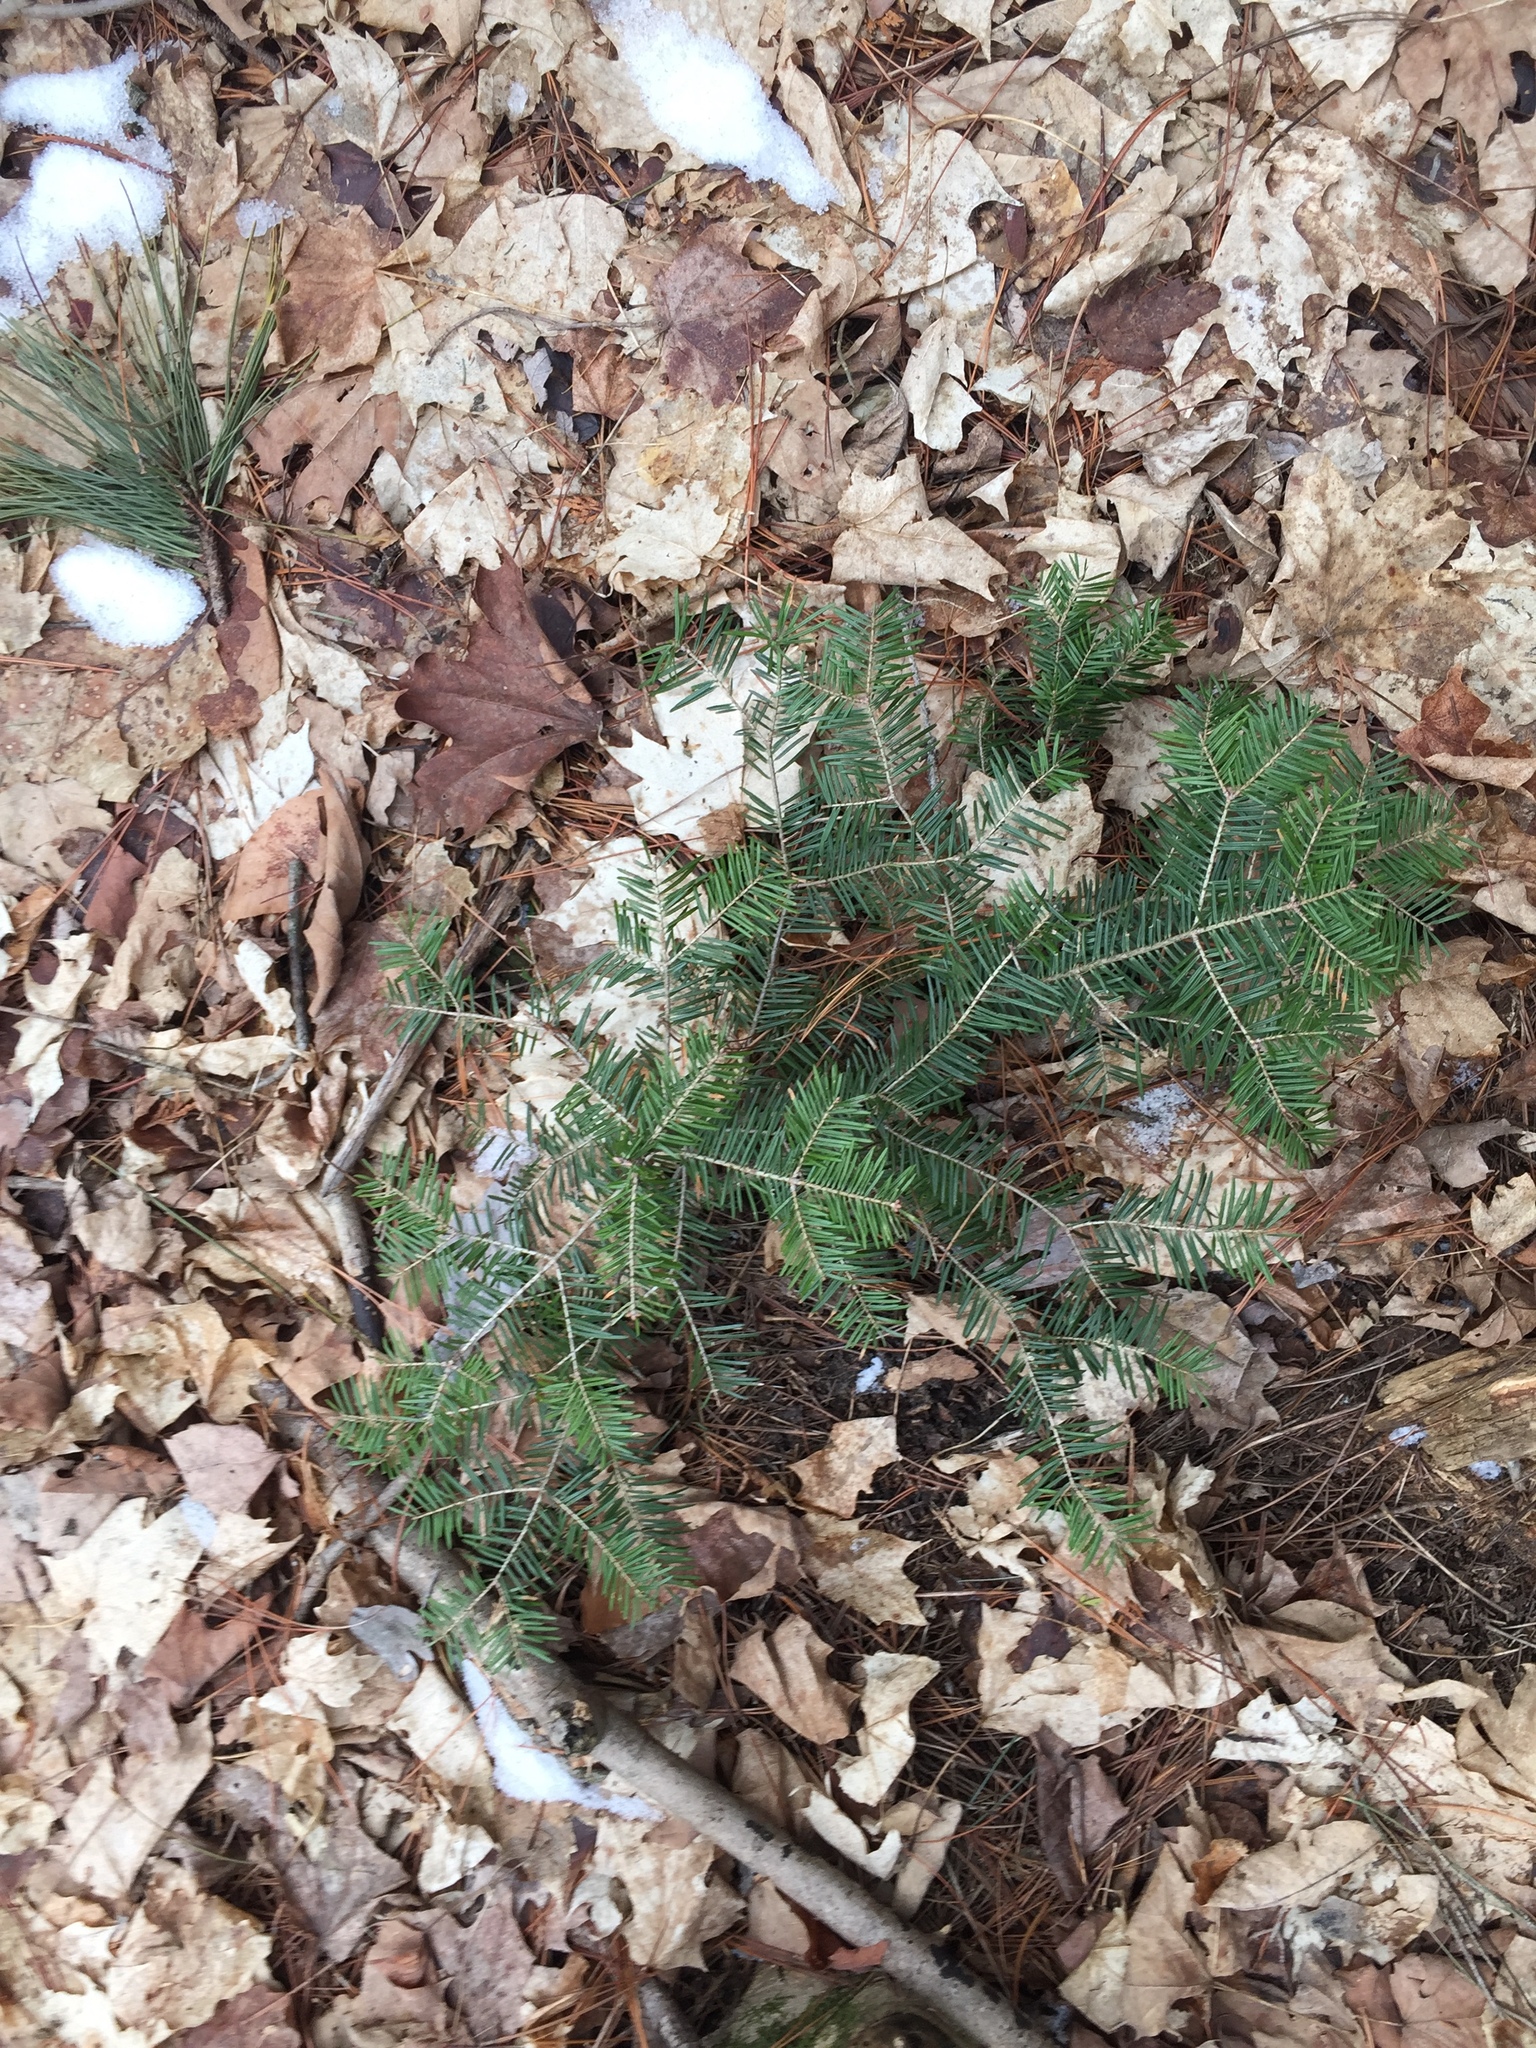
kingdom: Plantae
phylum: Tracheophyta
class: Pinopsida
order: Pinales
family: Pinaceae
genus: Abies
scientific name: Abies balsamea
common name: Balsam fir
